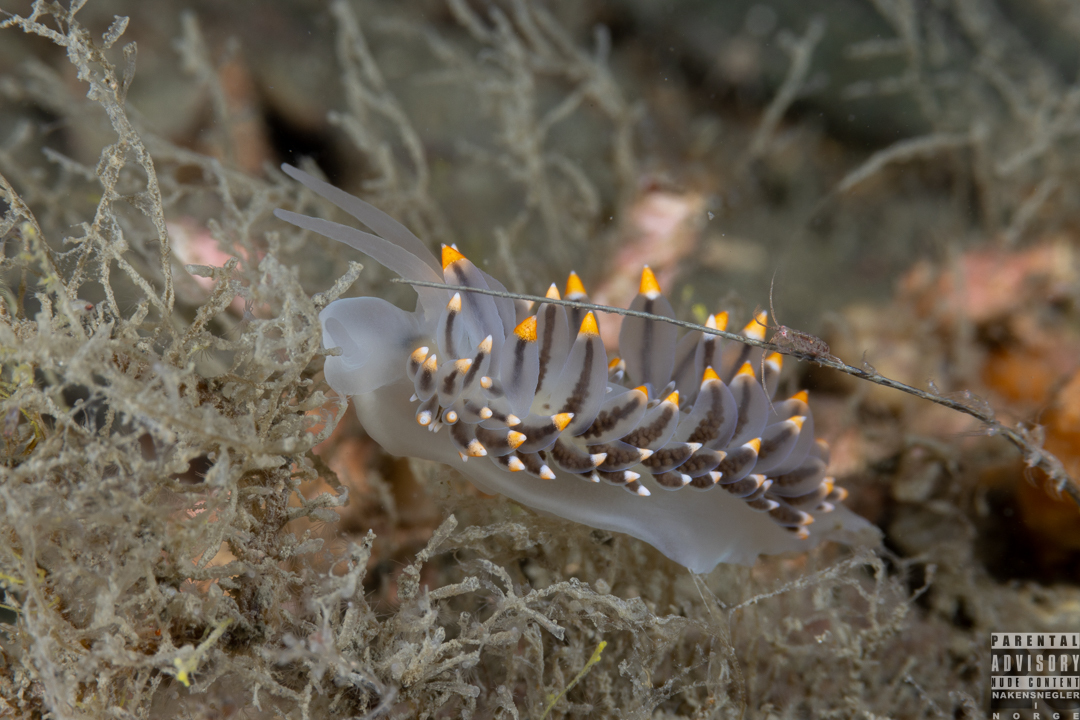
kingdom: Animalia
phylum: Mollusca
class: Gastropoda
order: Nudibranchia
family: Eubranchidae
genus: Eubranchus
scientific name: Eubranchus tricolor
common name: Painted balloon aeolis
